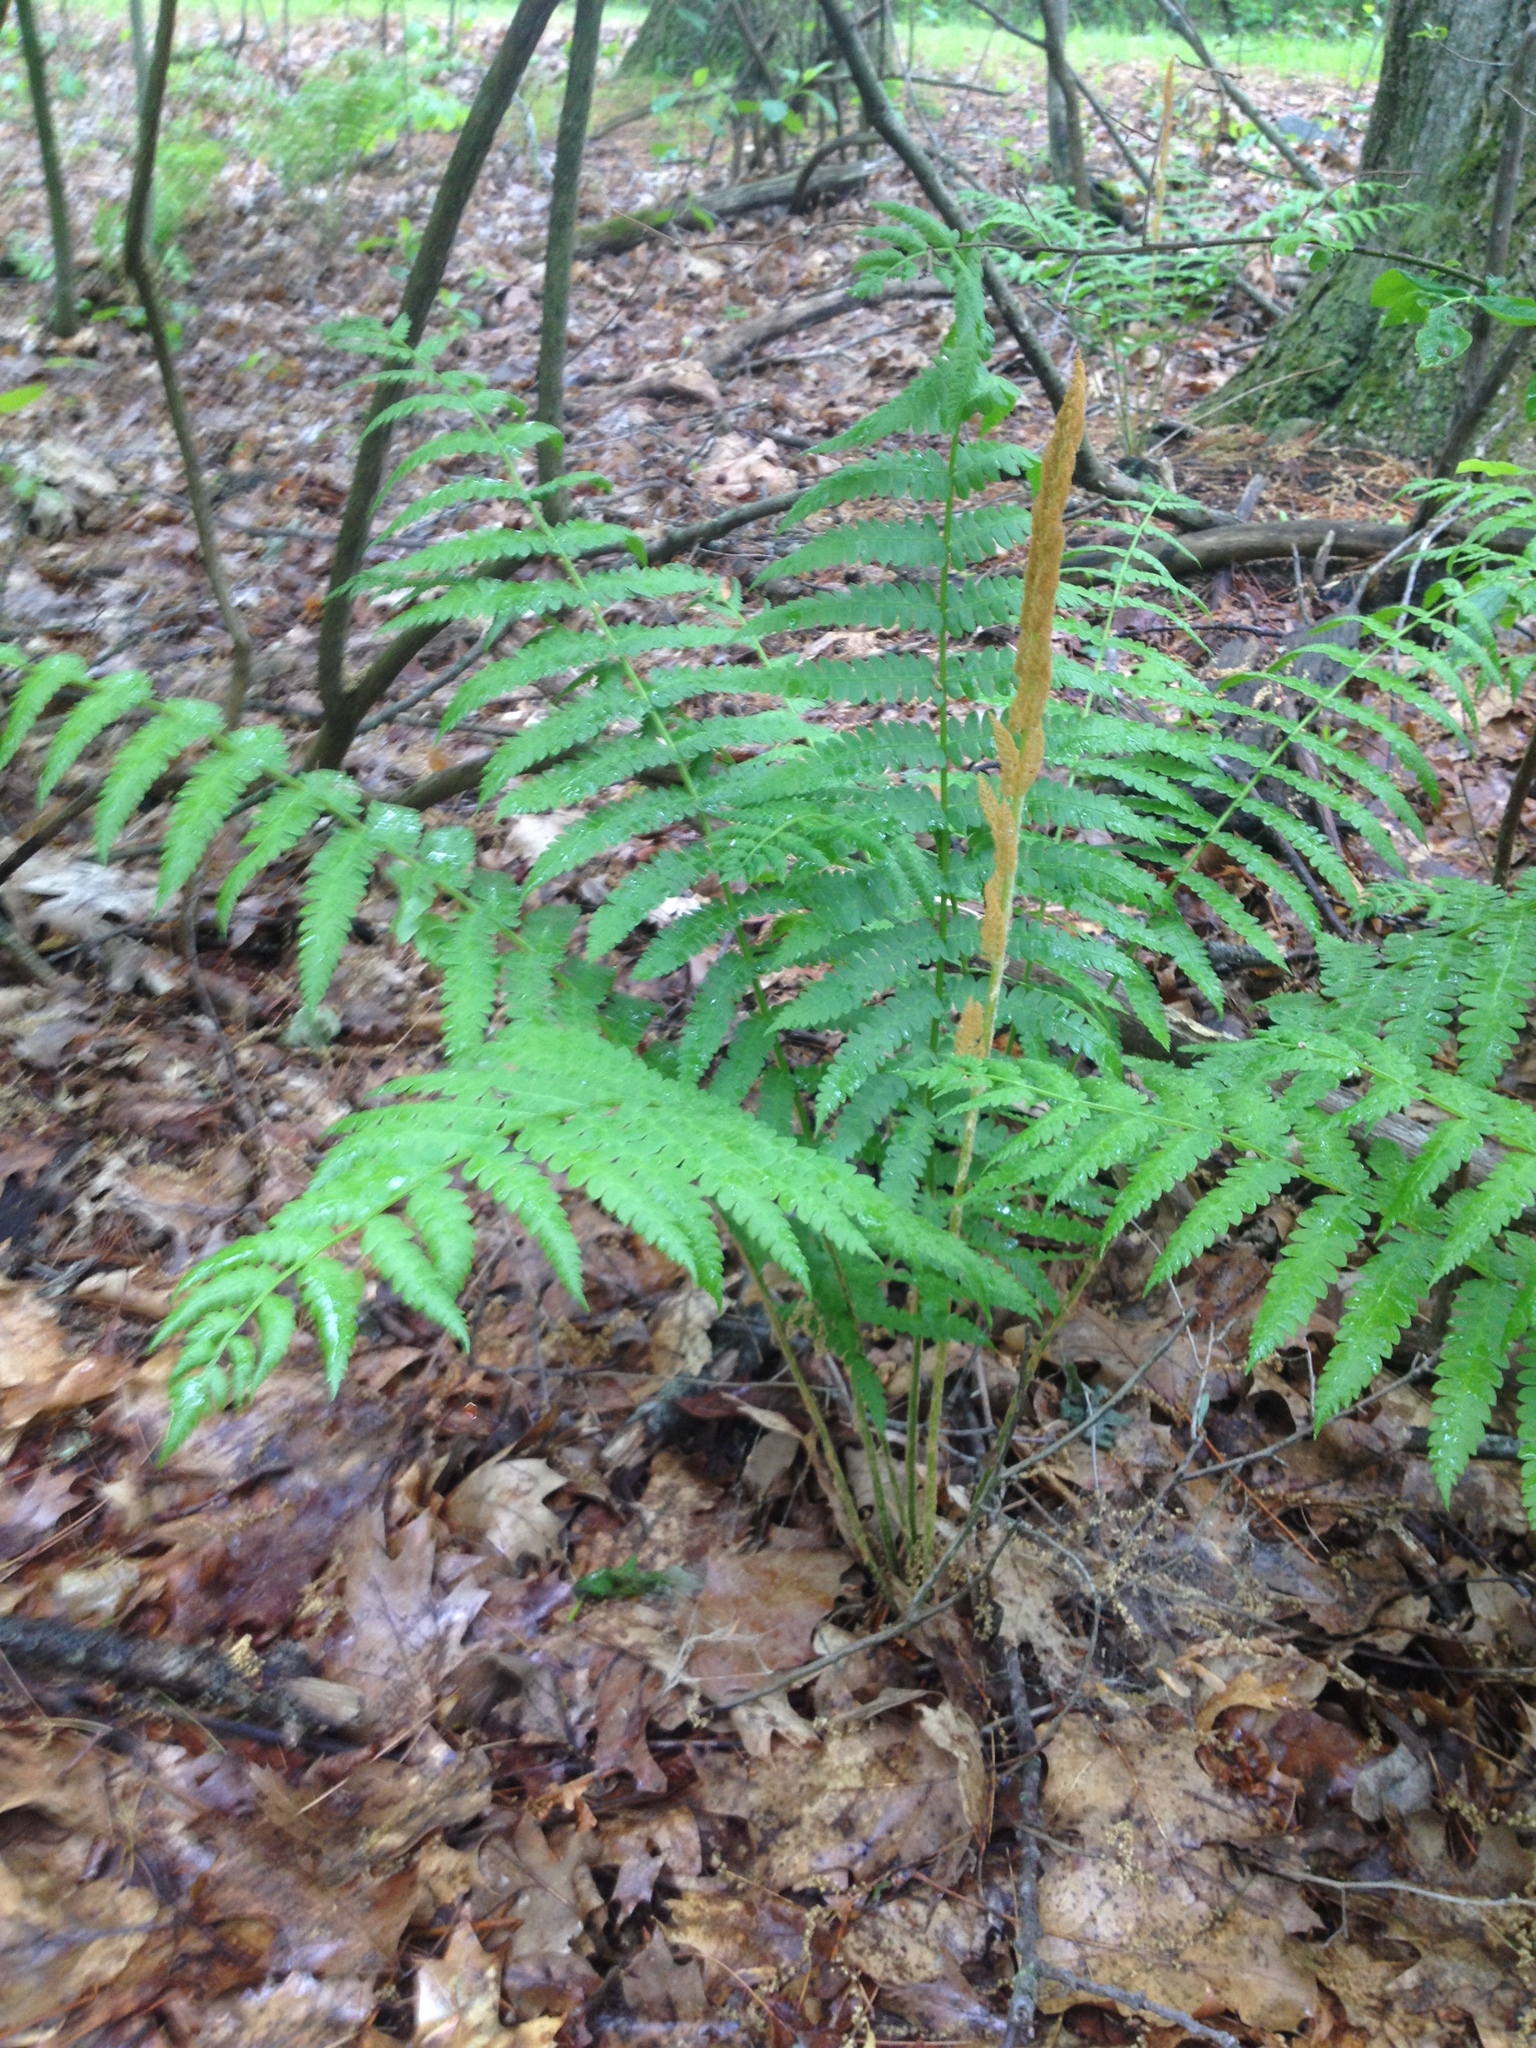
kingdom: Plantae
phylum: Tracheophyta
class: Polypodiopsida
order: Osmundales
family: Osmundaceae
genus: Osmundastrum
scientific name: Osmundastrum cinnamomeum
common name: Cinnamon fern
